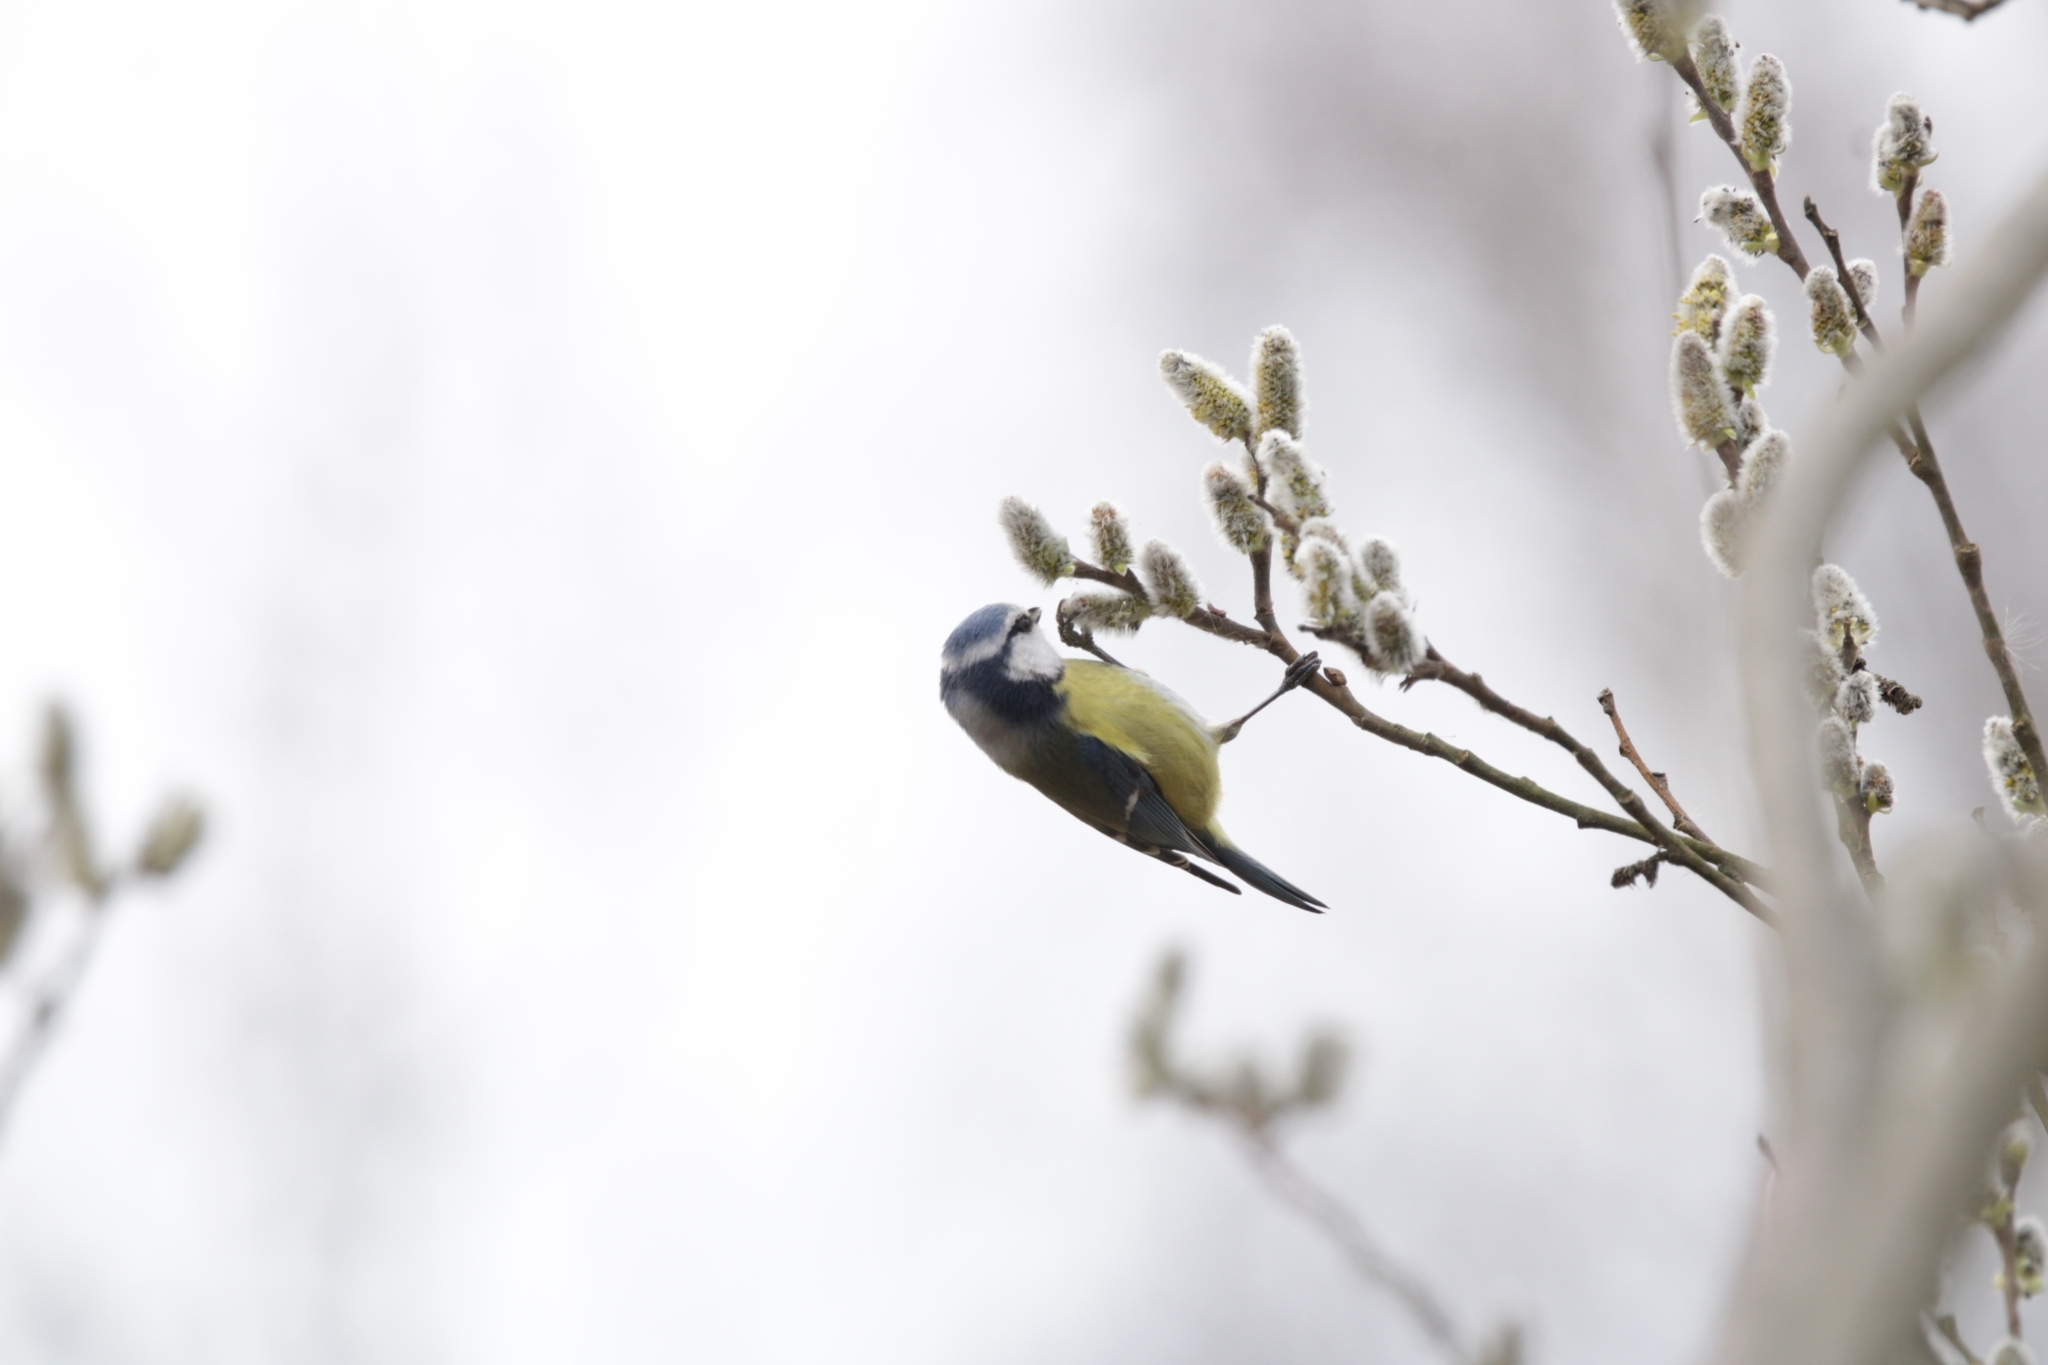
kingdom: Animalia
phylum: Chordata
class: Aves
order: Passeriformes
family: Paridae
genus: Cyanistes
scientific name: Cyanistes caeruleus
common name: Eurasian blue tit
